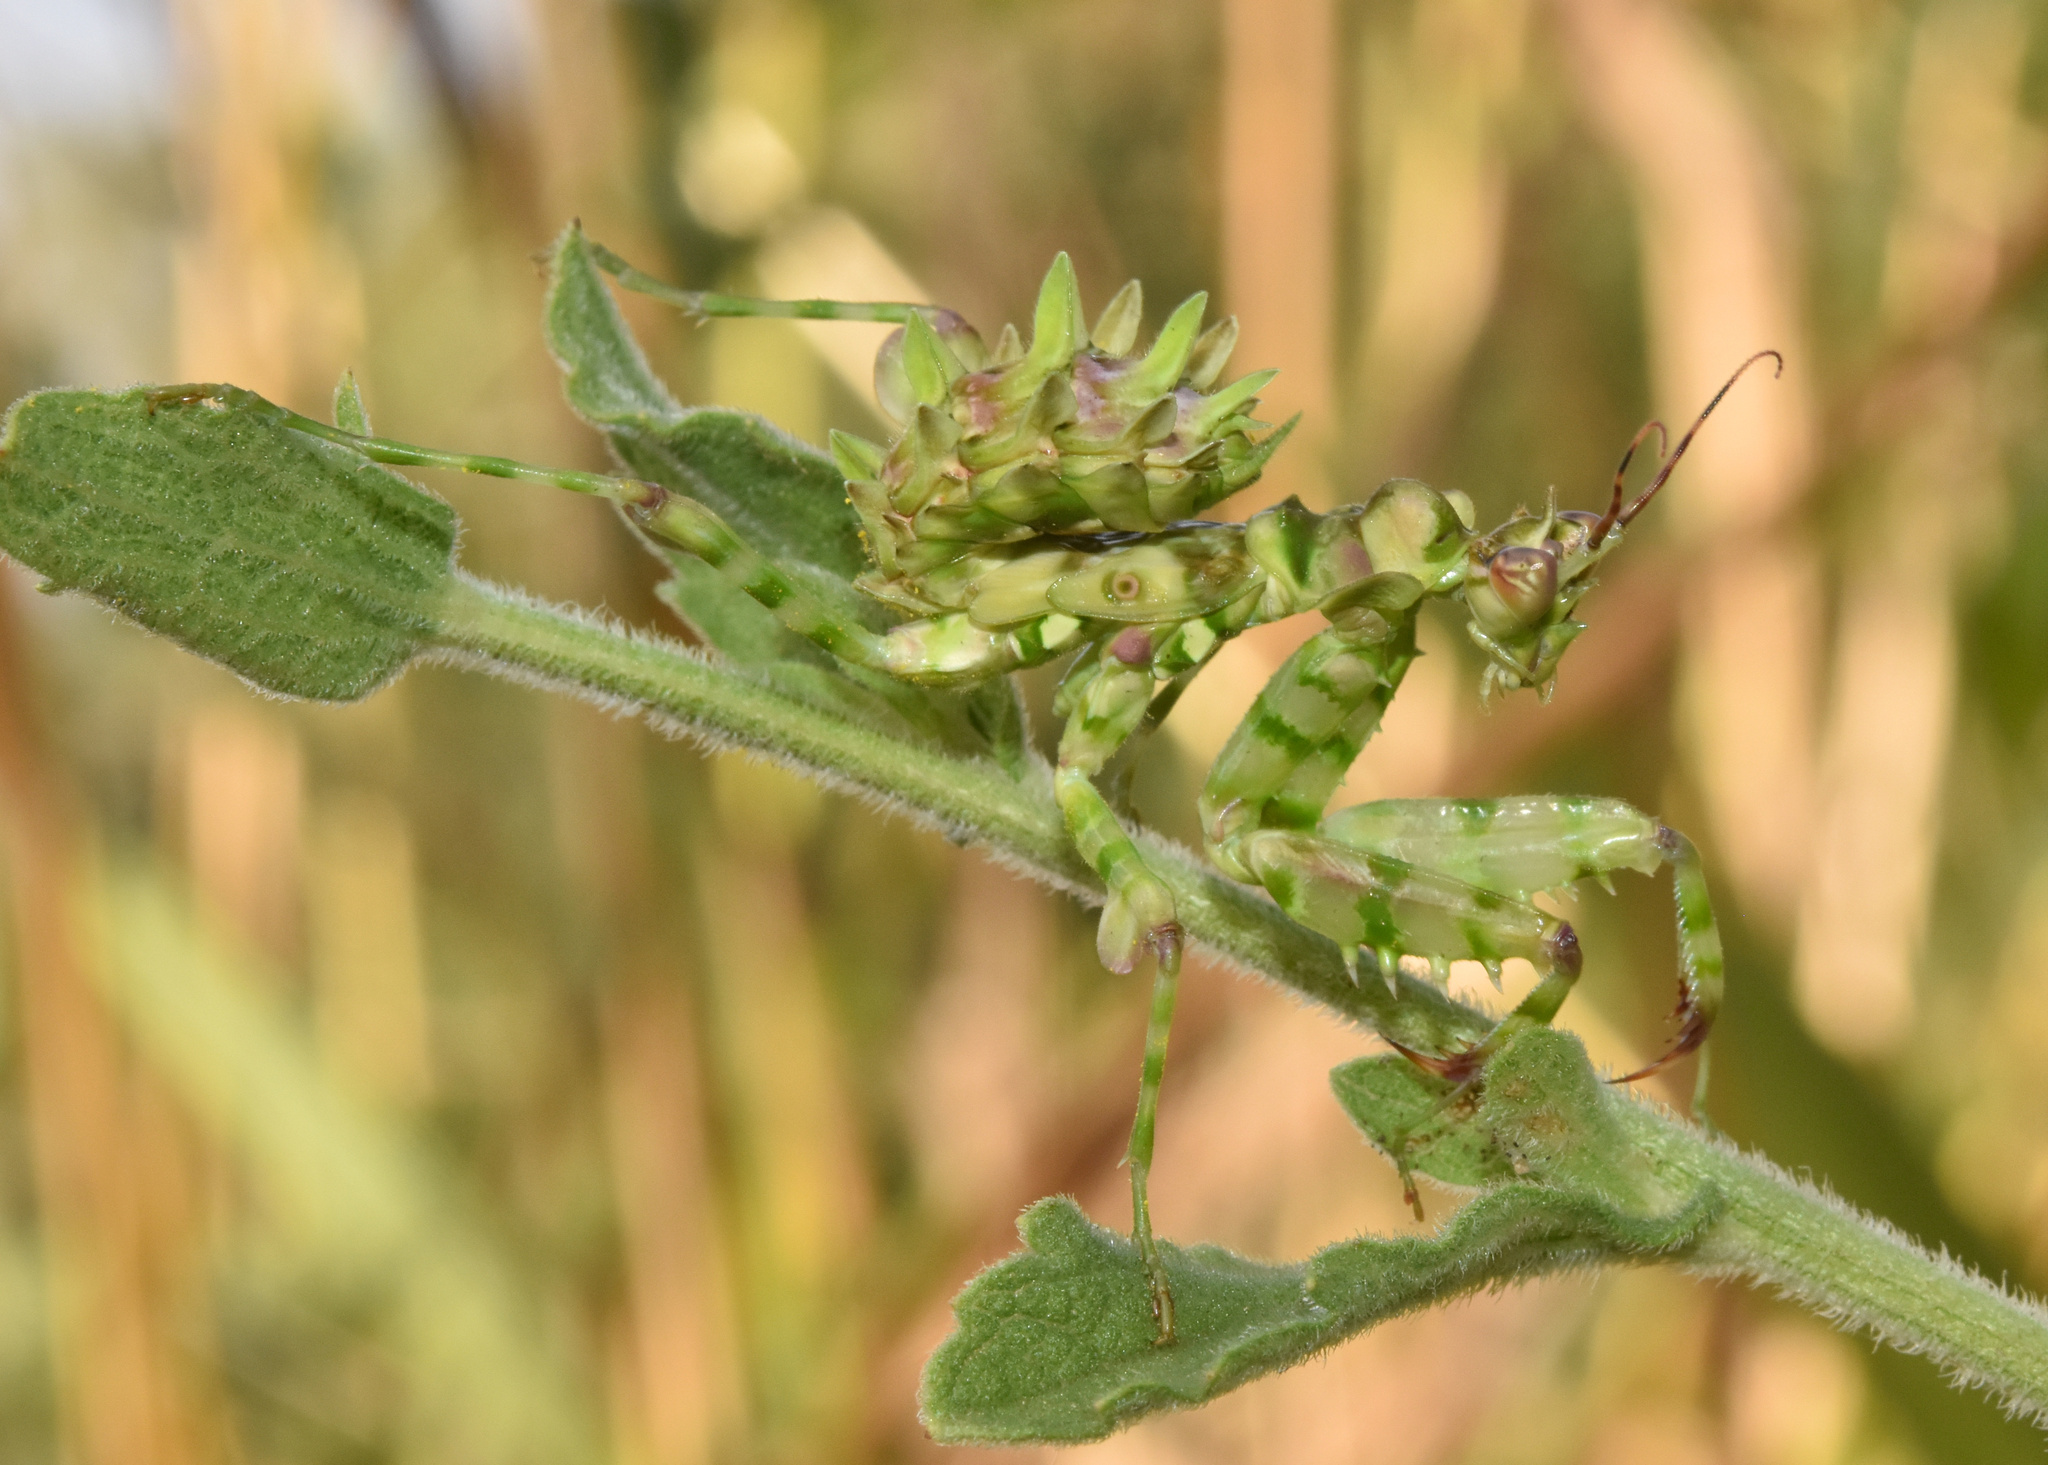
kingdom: Animalia
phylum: Arthropoda
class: Insecta
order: Mantodea
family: Hymenopodidae
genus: Pseudocreobotra
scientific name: Pseudocreobotra wahlbergi
